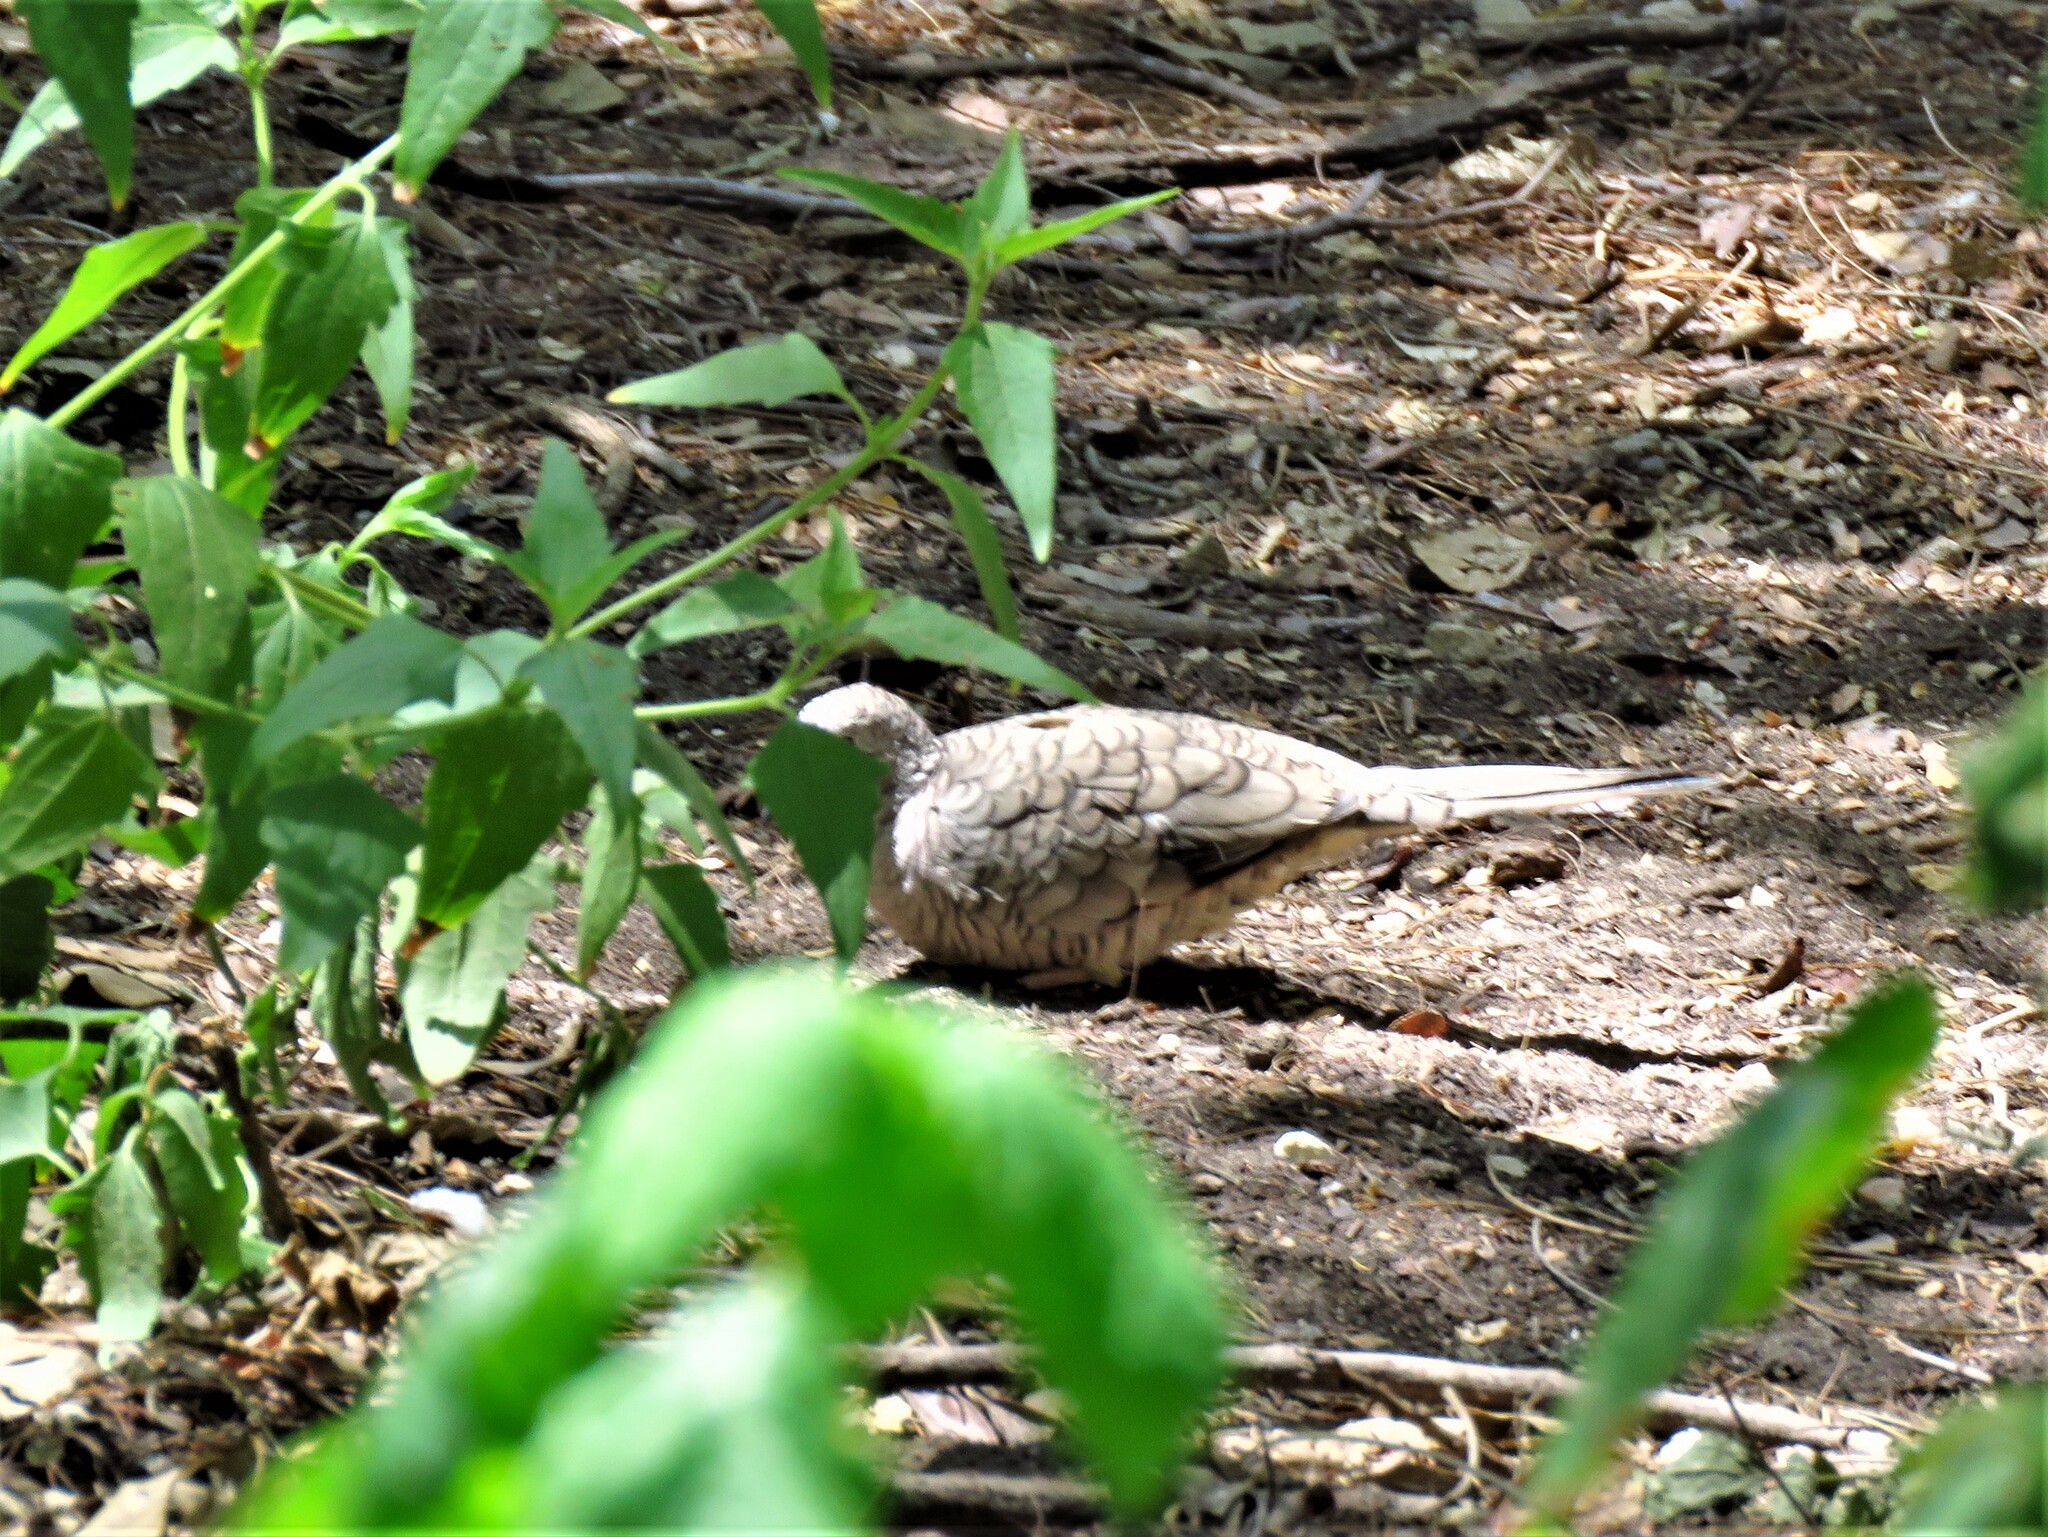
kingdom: Animalia
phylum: Chordata
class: Aves
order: Columbiformes
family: Columbidae
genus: Columbina
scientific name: Columbina inca
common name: Inca dove
